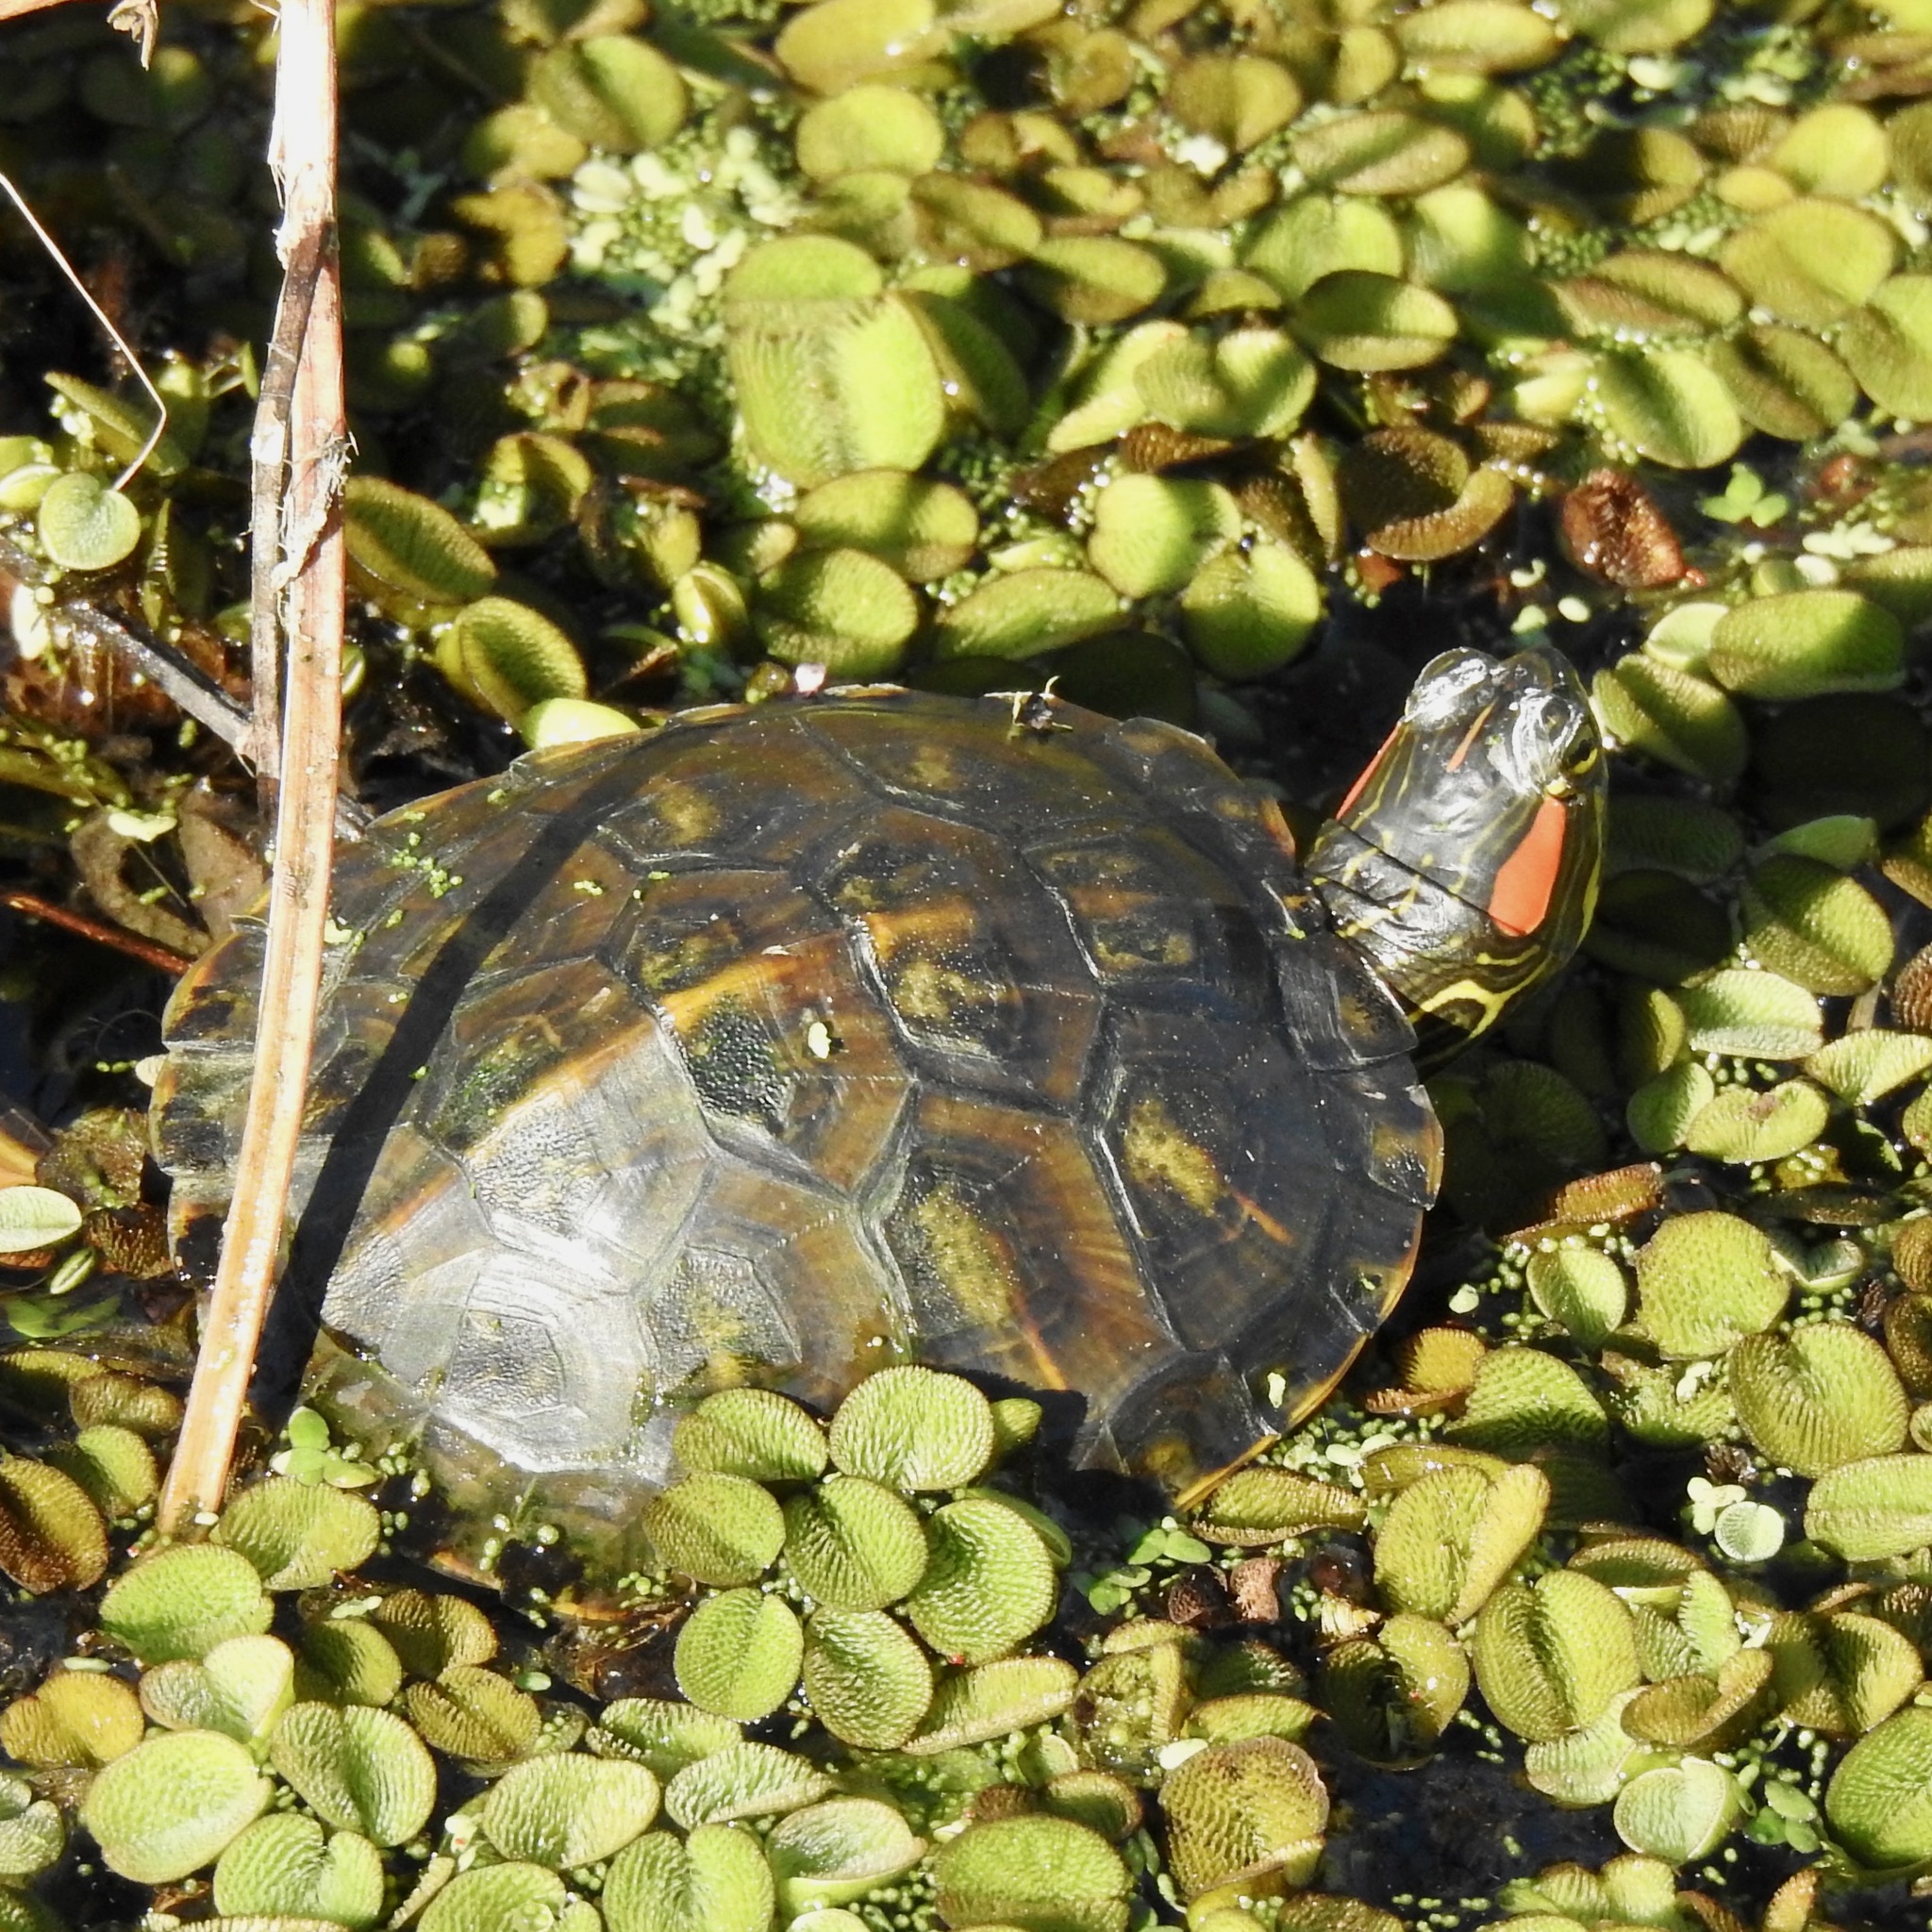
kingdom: Animalia
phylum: Chordata
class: Testudines
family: Emydidae
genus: Trachemys
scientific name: Trachemys scripta
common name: Slider
